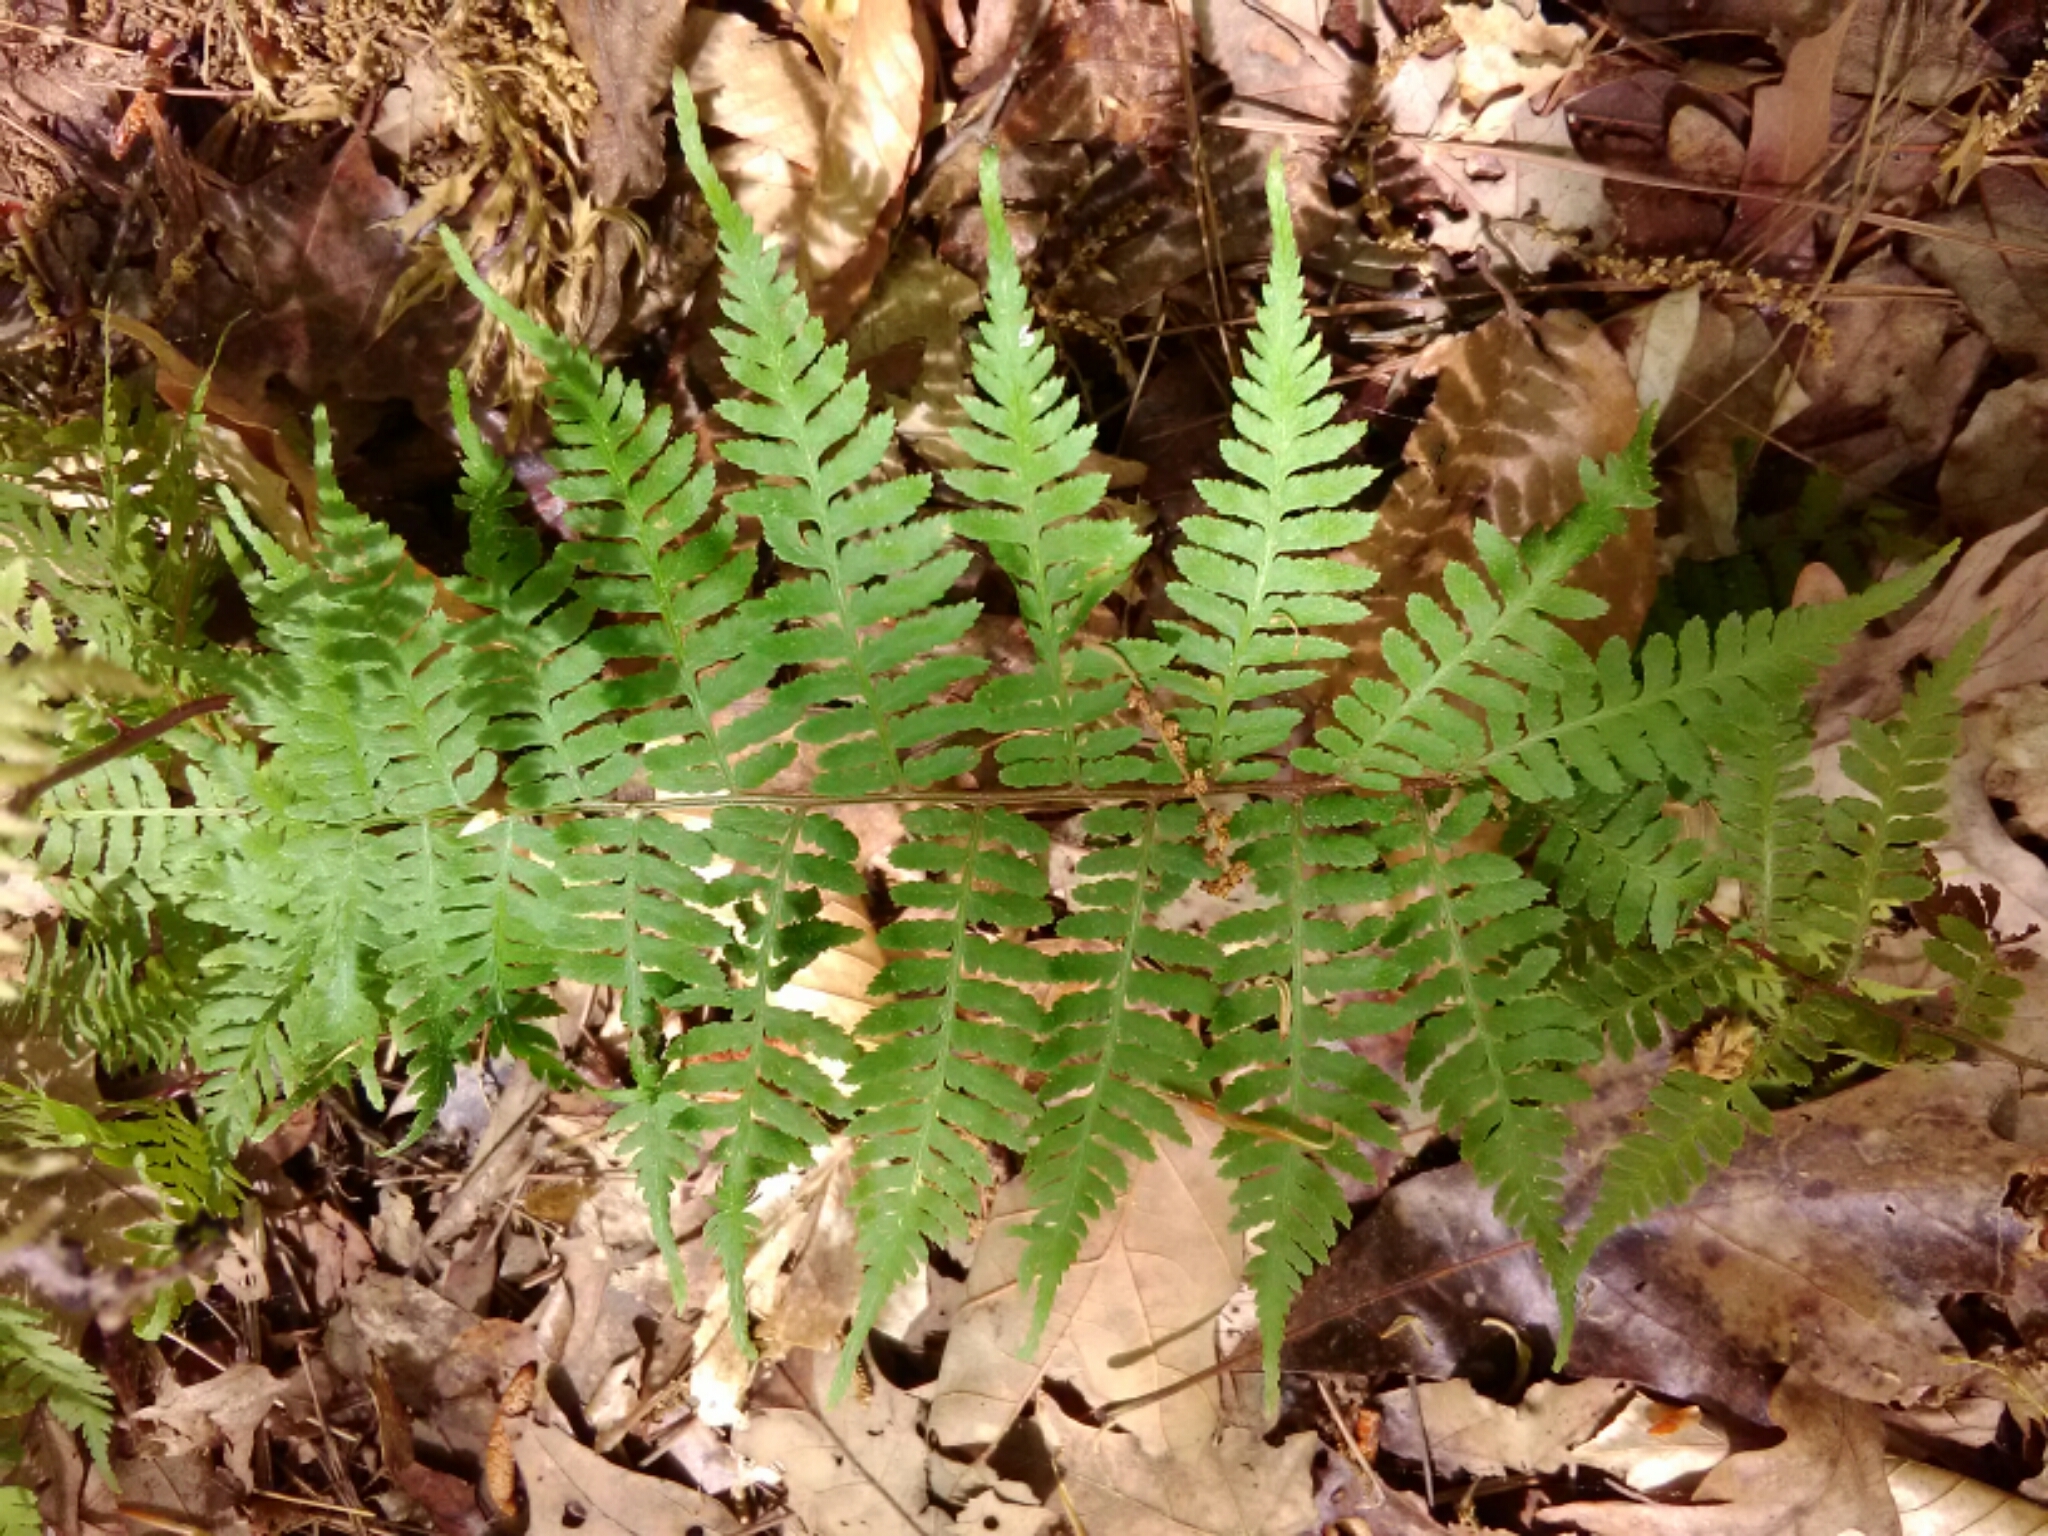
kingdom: Plantae
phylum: Tracheophyta
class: Polypodiopsida
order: Polypodiales
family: Athyriaceae
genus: Athyrium
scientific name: Athyrium asplenioides
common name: Southern lady fern
